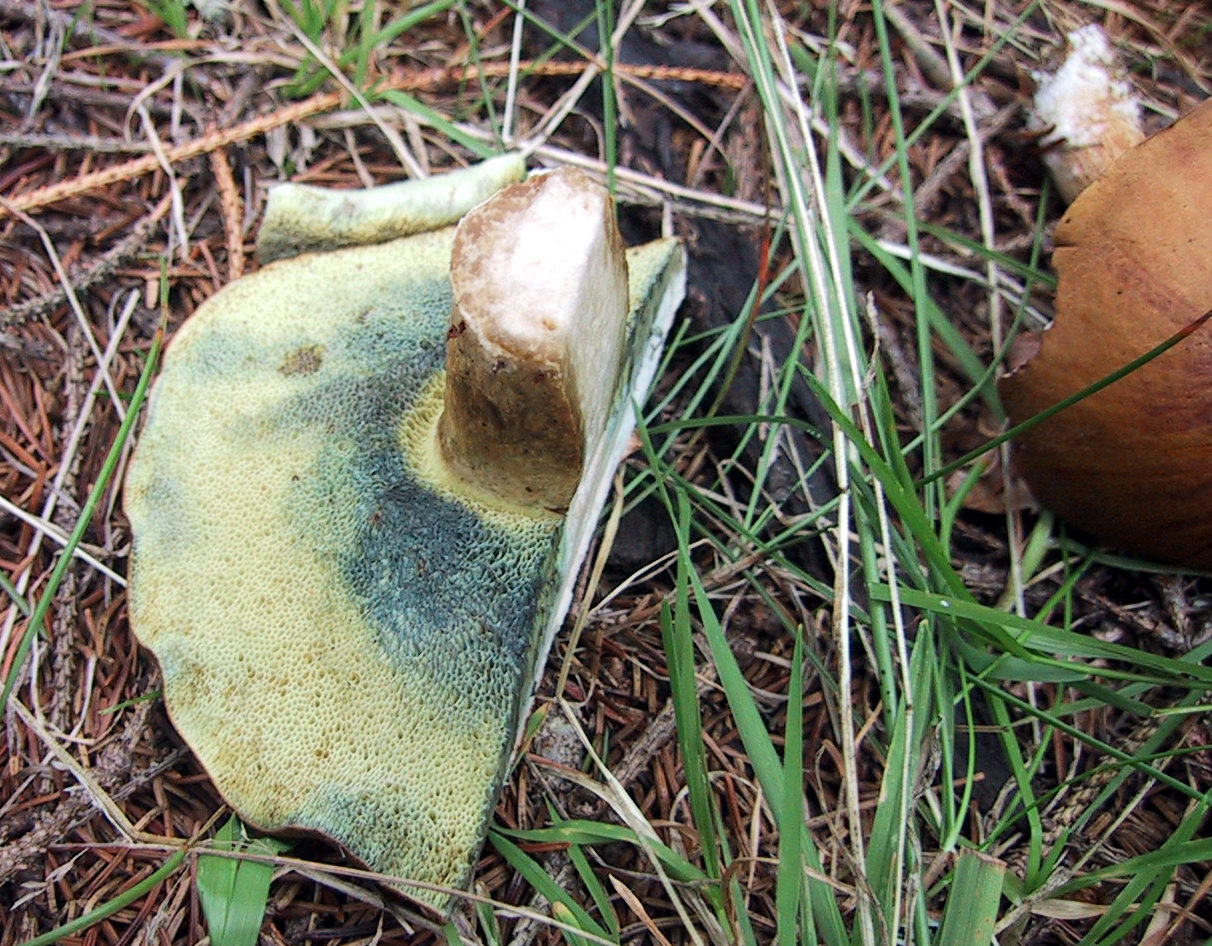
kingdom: Fungi
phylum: Basidiomycota
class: Agaricomycetes
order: Boletales
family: Boletaceae
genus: Imleria
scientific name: Imleria badia
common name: Bay bolete
